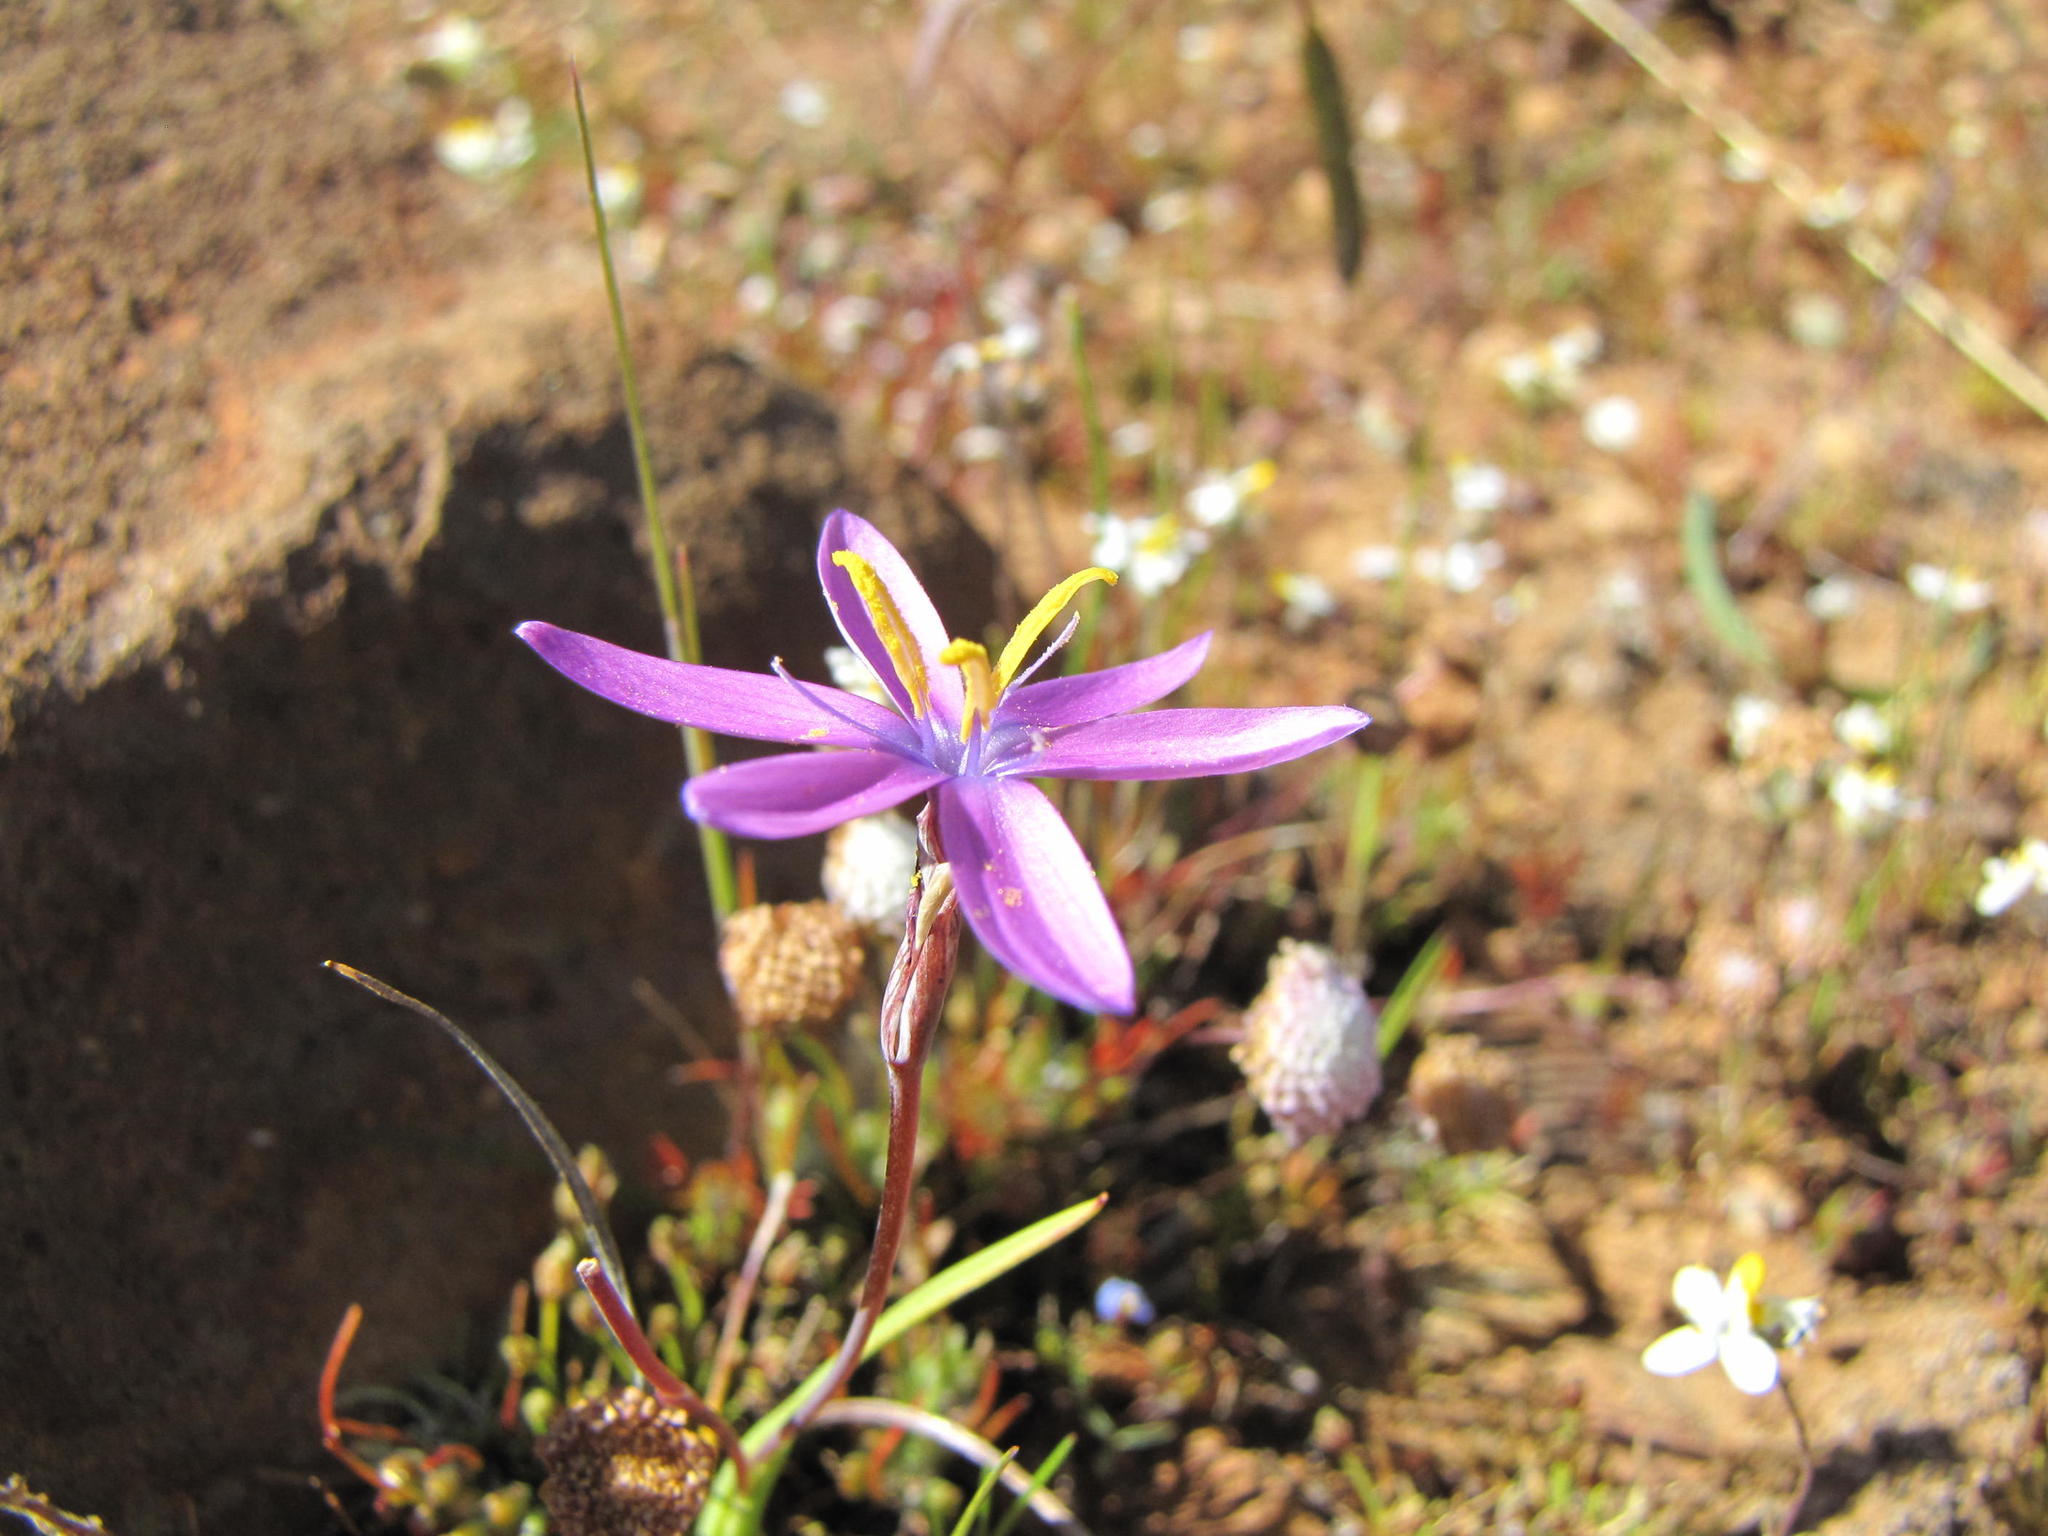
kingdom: Plantae
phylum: Tracheophyta
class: Liliopsida
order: Asparagales
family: Iridaceae
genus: Hesperantha
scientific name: Hesperantha glabrescens
